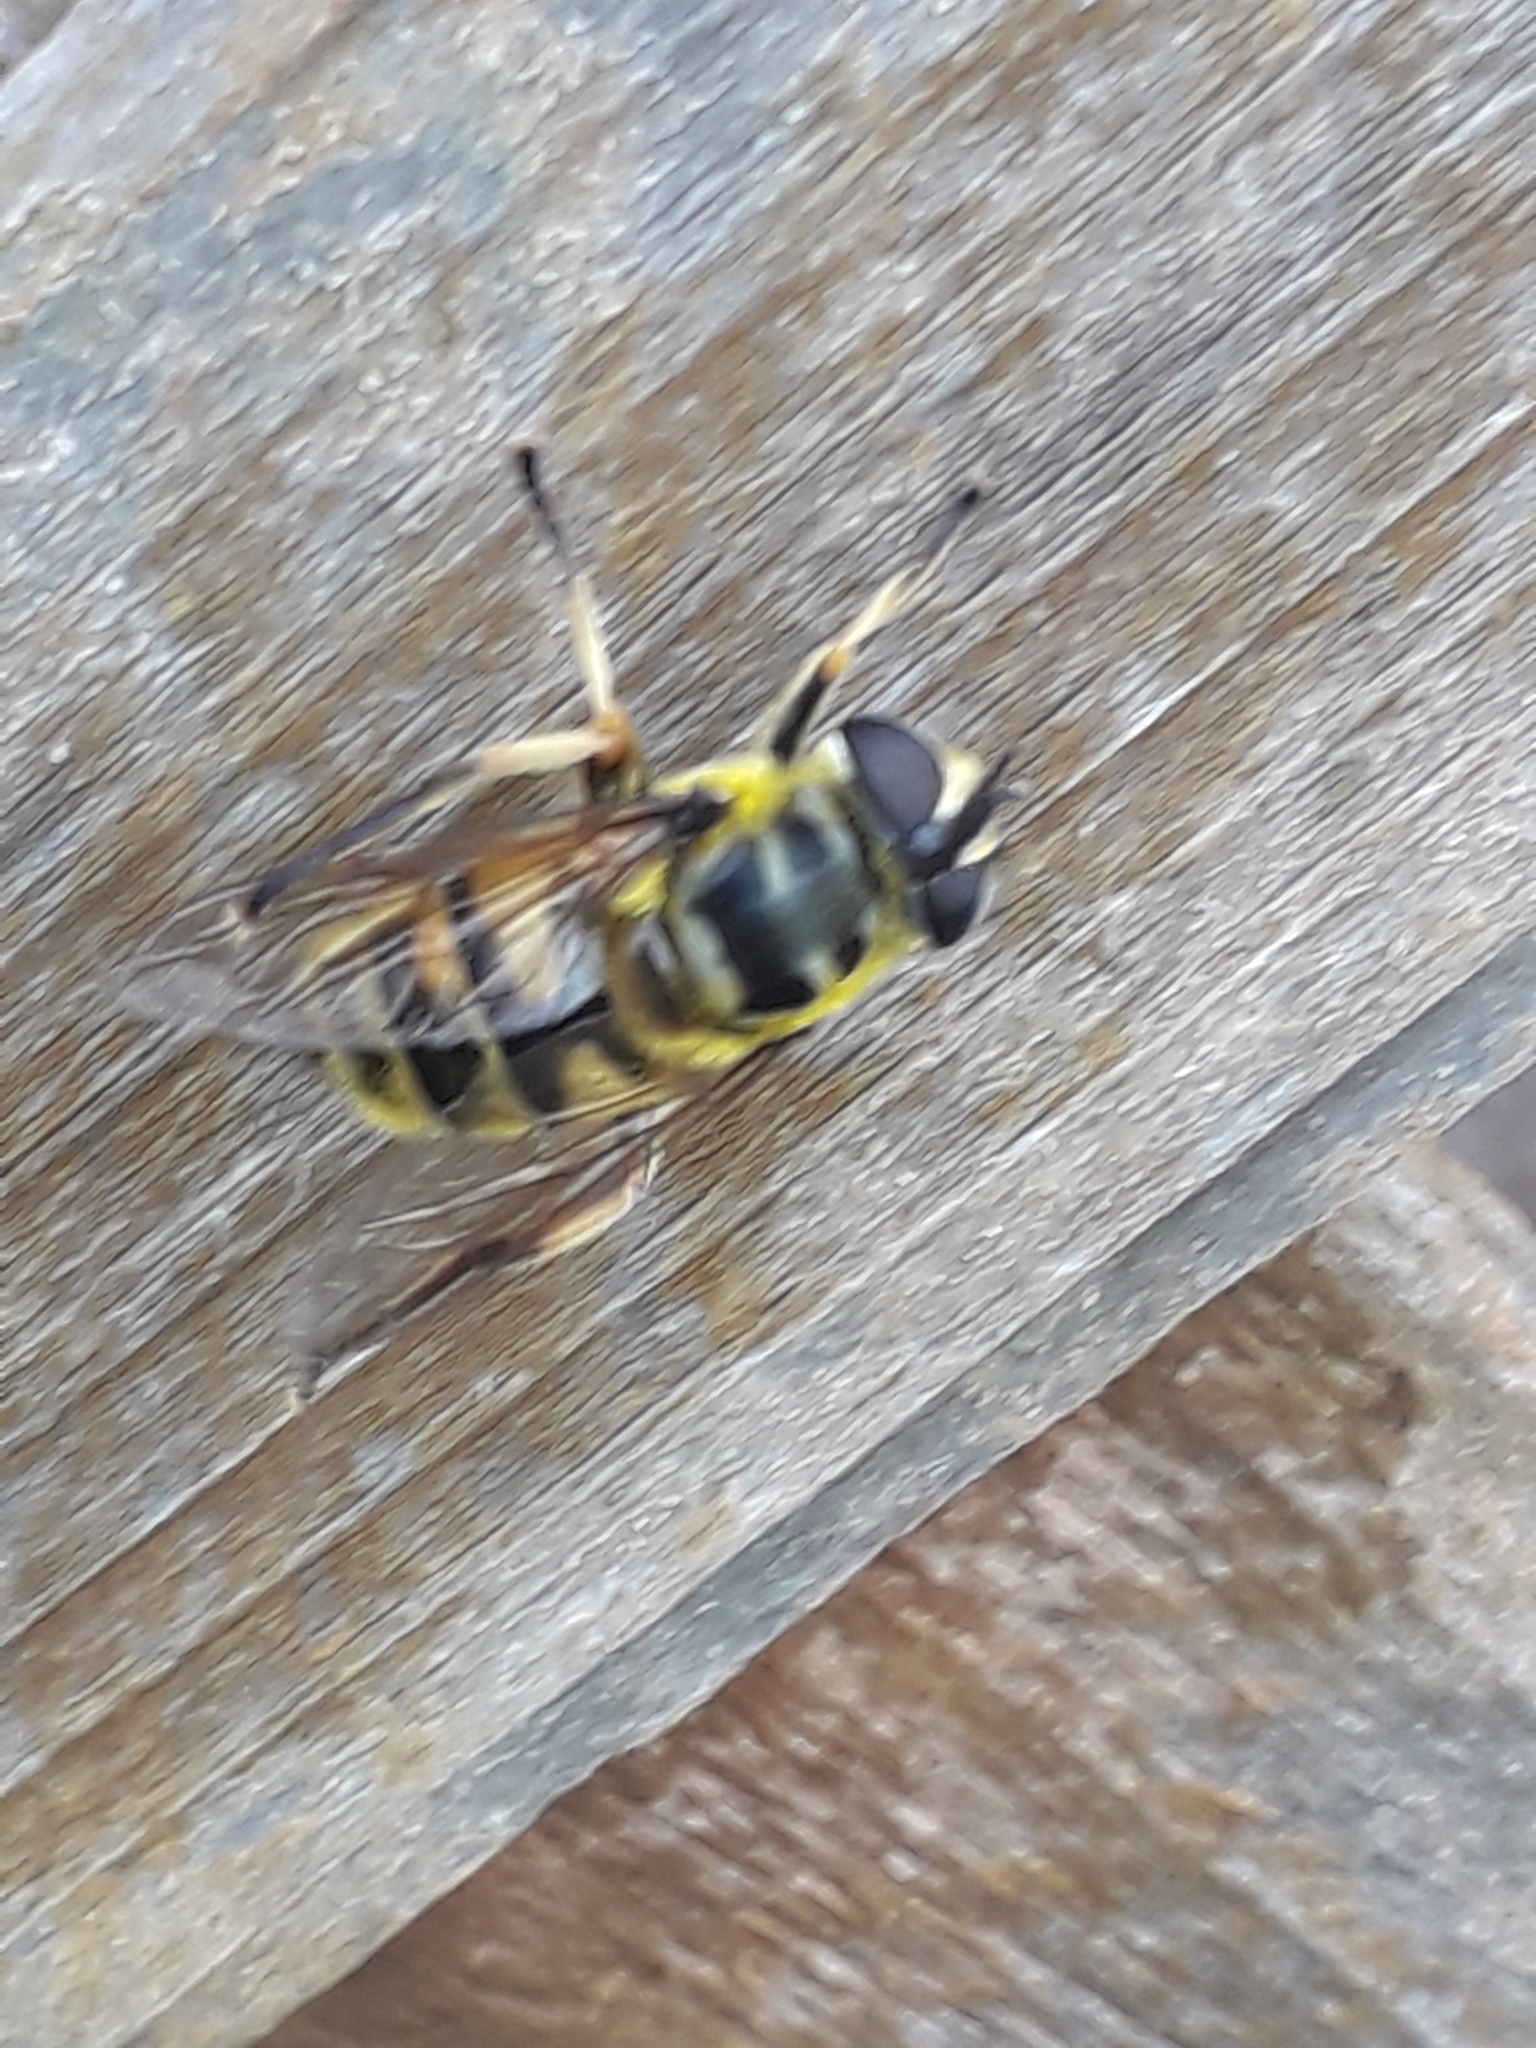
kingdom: Animalia
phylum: Arthropoda
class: Insecta
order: Diptera
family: Syrphidae
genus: Myathropa
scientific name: Myathropa florea
